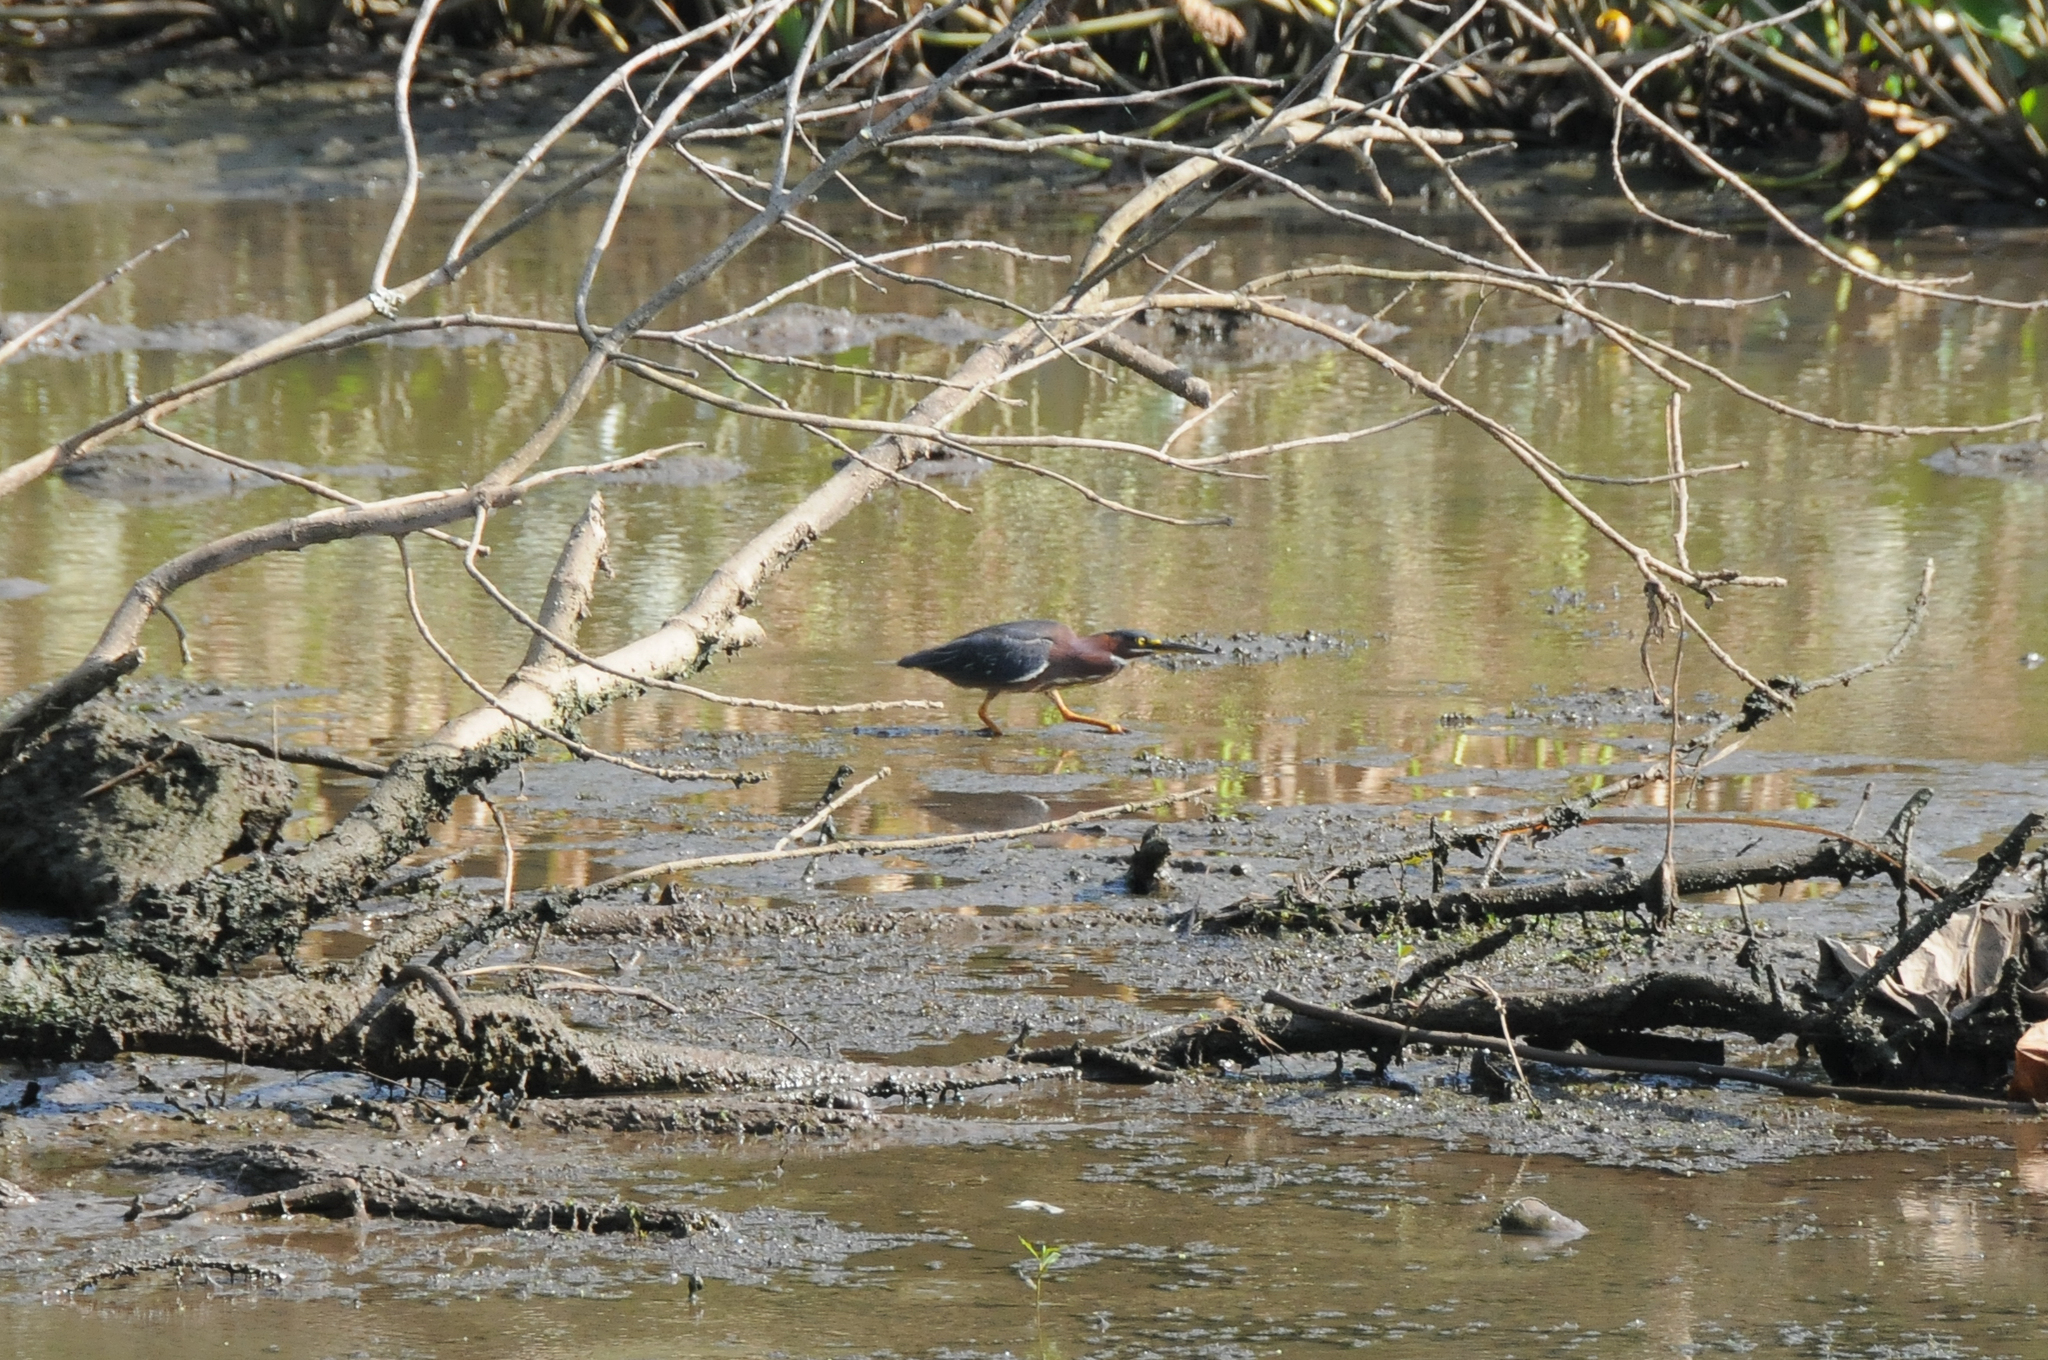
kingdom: Animalia
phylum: Chordata
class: Aves
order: Pelecaniformes
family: Ardeidae
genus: Butorides
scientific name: Butorides virescens
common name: Green heron
